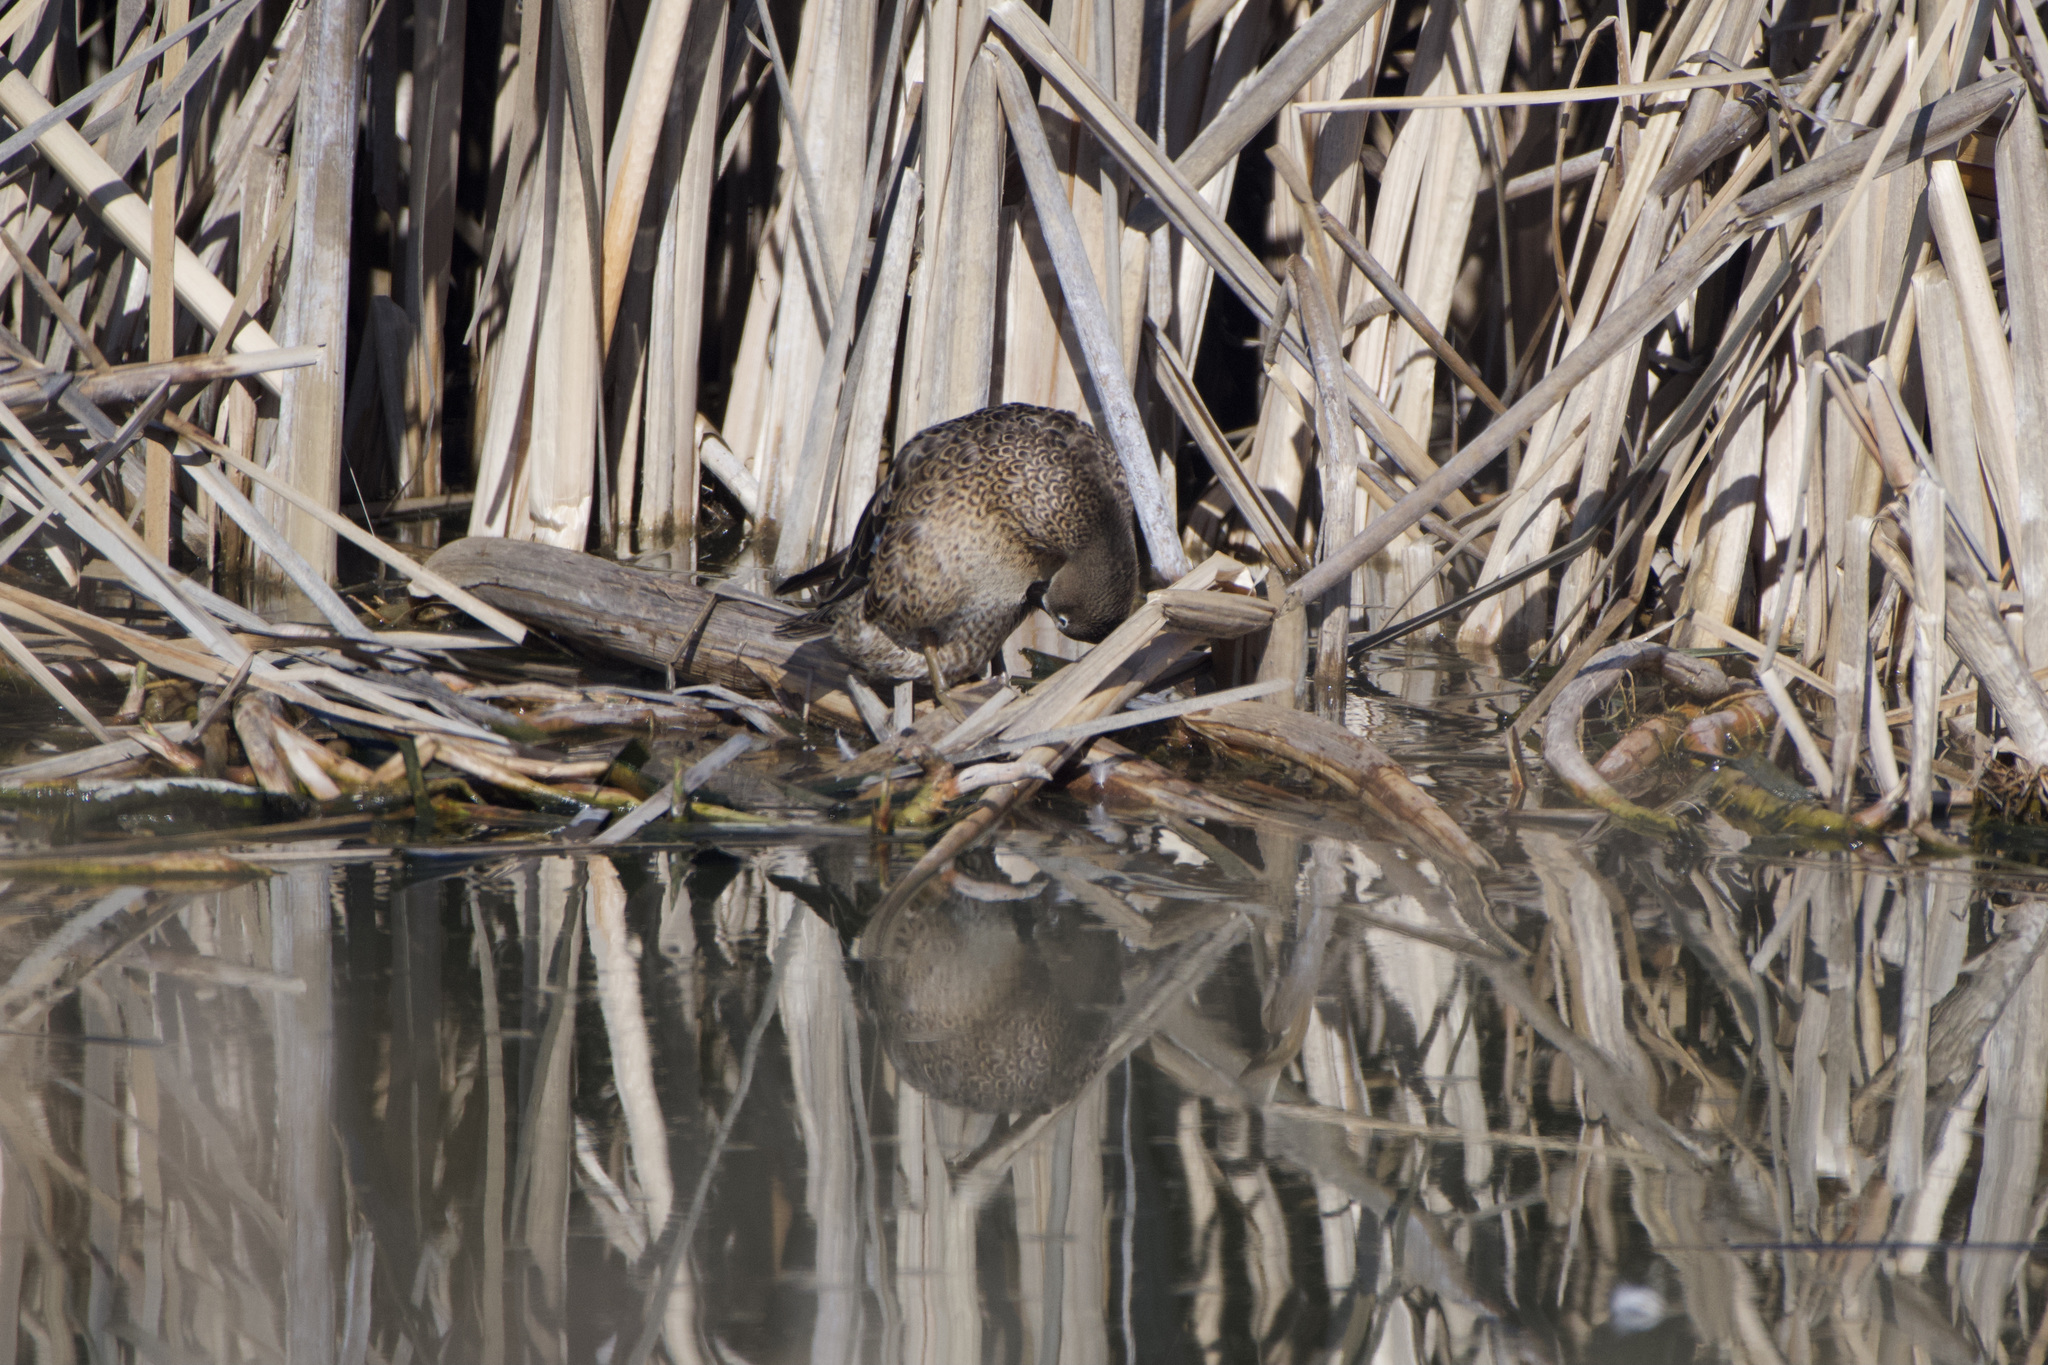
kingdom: Animalia
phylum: Chordata
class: Aves
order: Anseriformes
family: Anatidae
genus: Spatula
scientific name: Spatula discors
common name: Blue-winged teal
